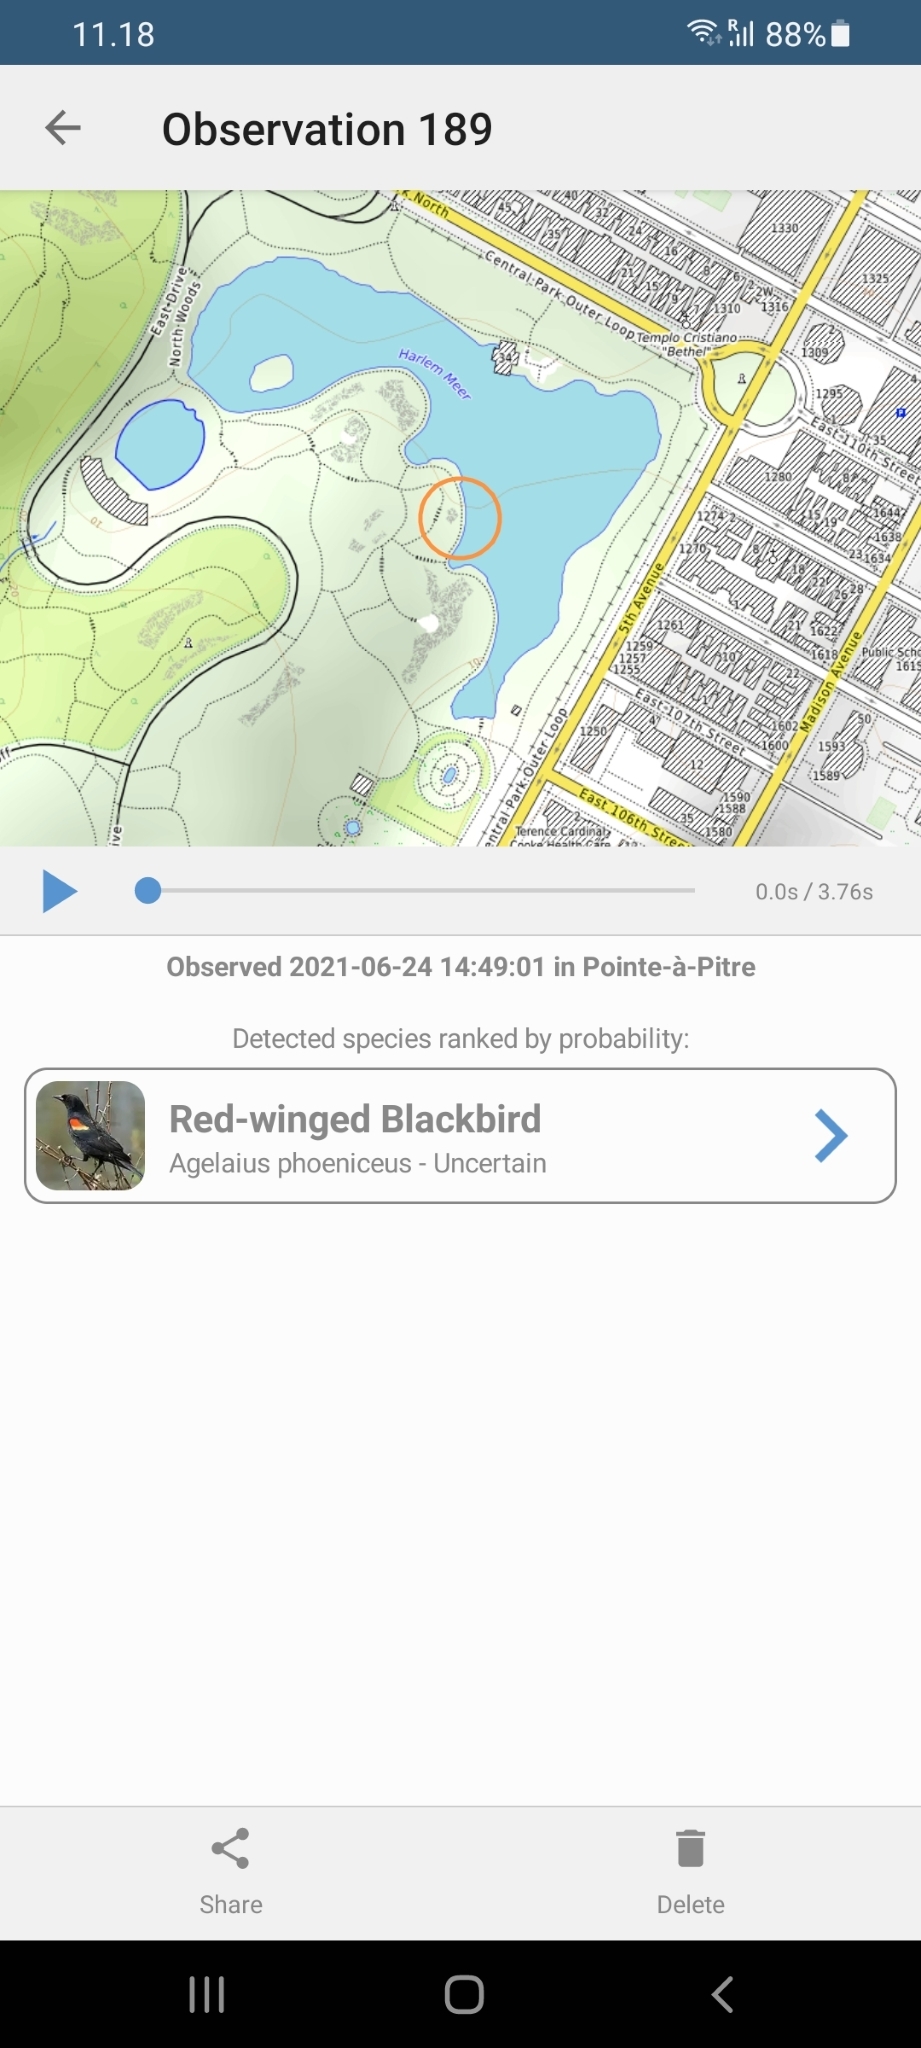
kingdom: Animalia
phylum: Chordata
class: Aves
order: Passeriformes
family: Icteridae
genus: Agelaius
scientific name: Agelaius phoeniceus
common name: Red-winged blackbird
